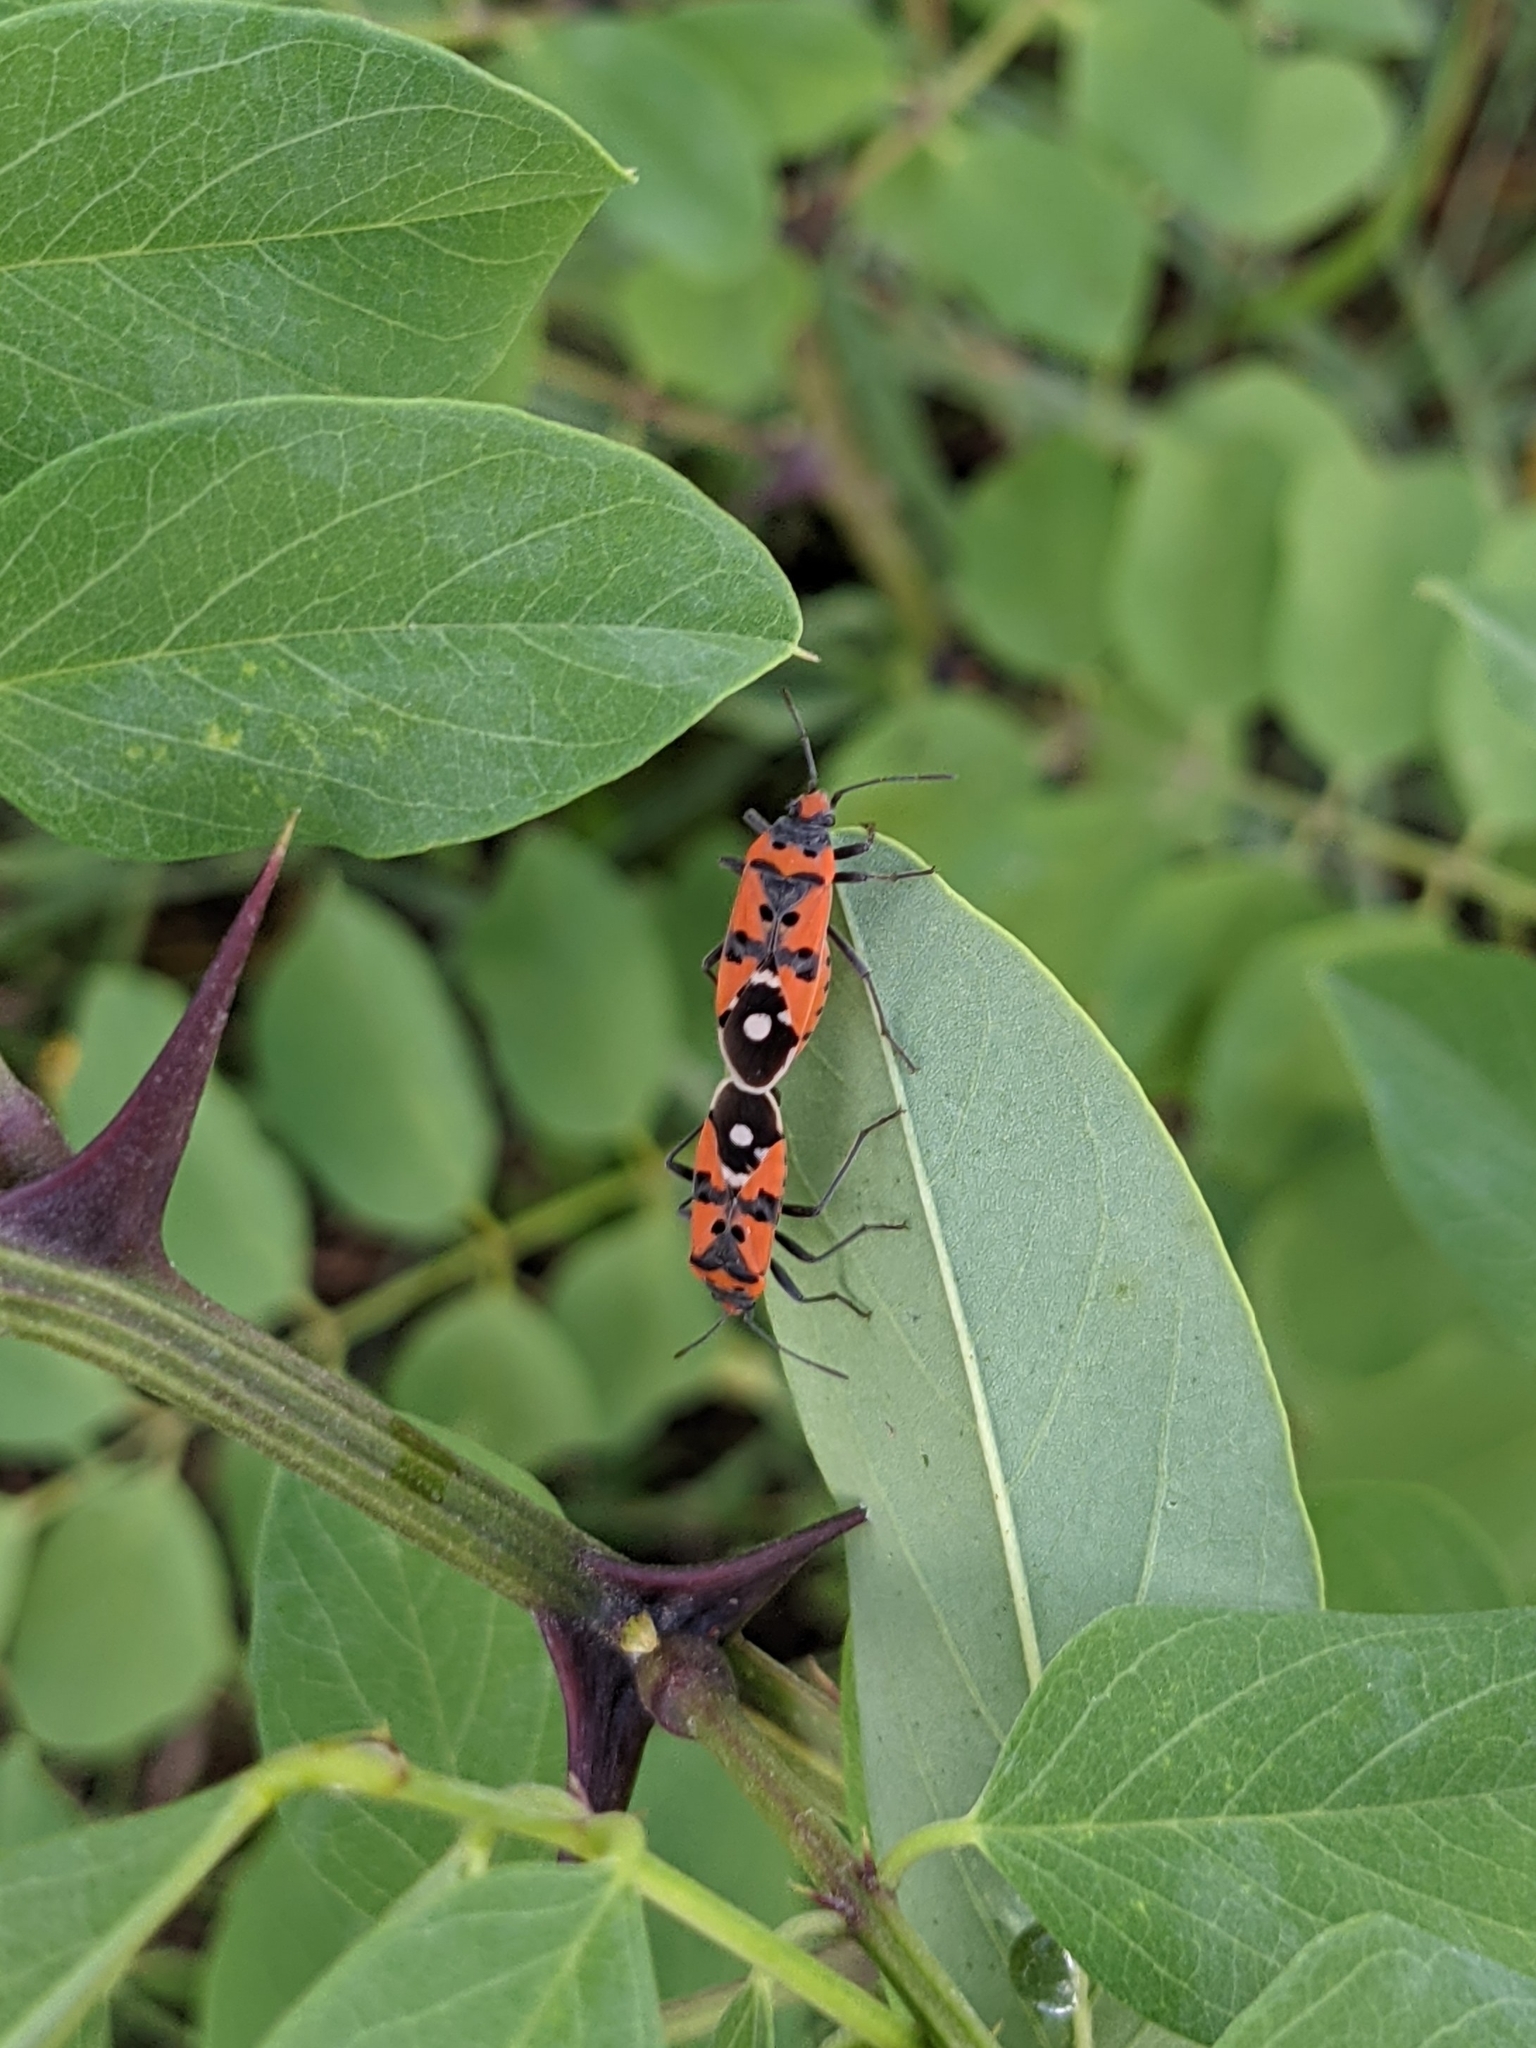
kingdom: Animalia
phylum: Arthropoda
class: Insecta
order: Hemiptera
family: Lygaeidae
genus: Lygaeus
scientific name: Lygaeus equestris
